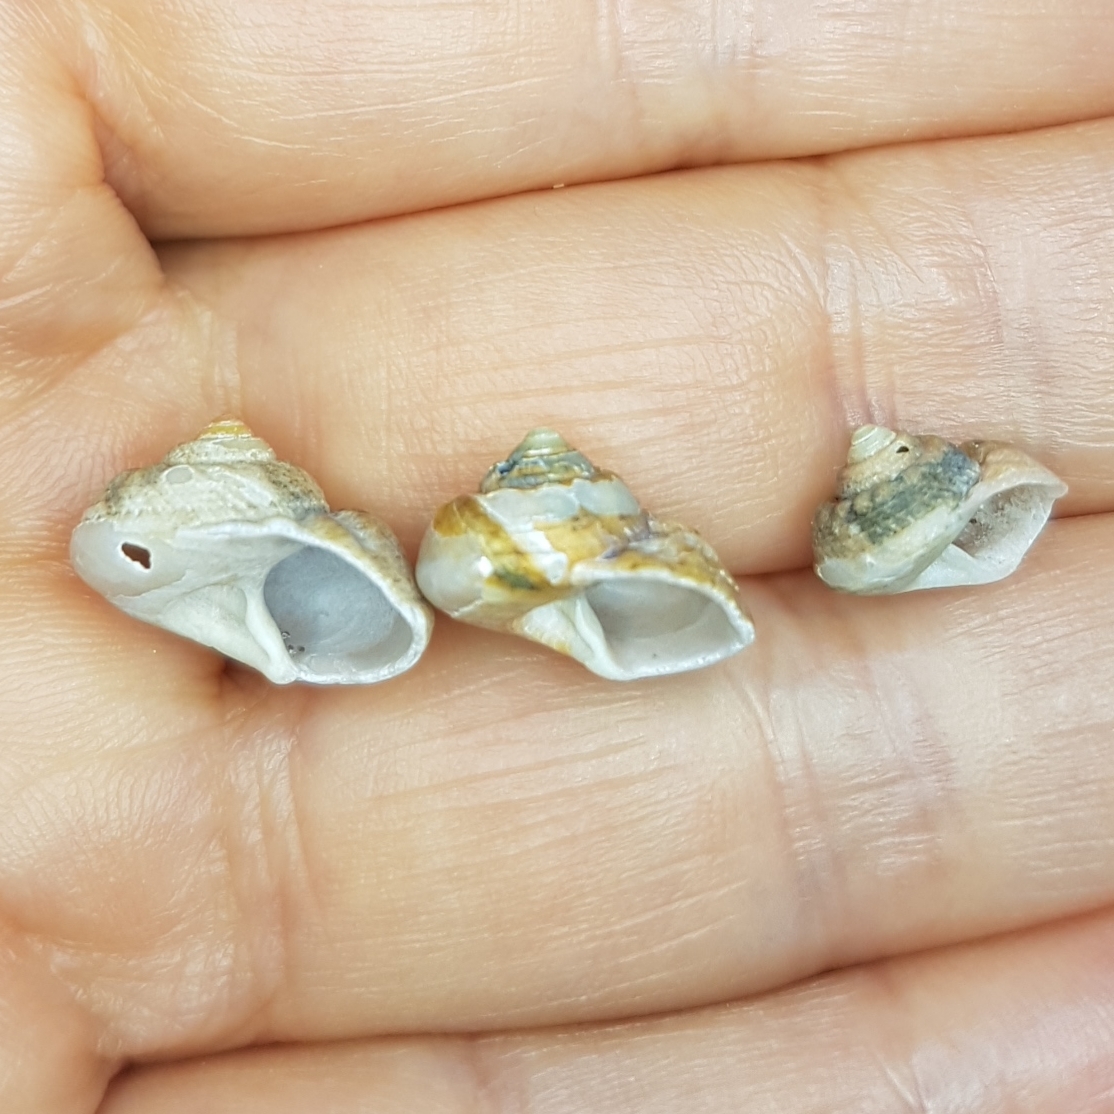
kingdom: Animalia
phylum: Mollusca
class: Gastropoda
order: Trochida
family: Trochidae
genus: Gibbula
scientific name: Gibbula magus
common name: Turban top shell
